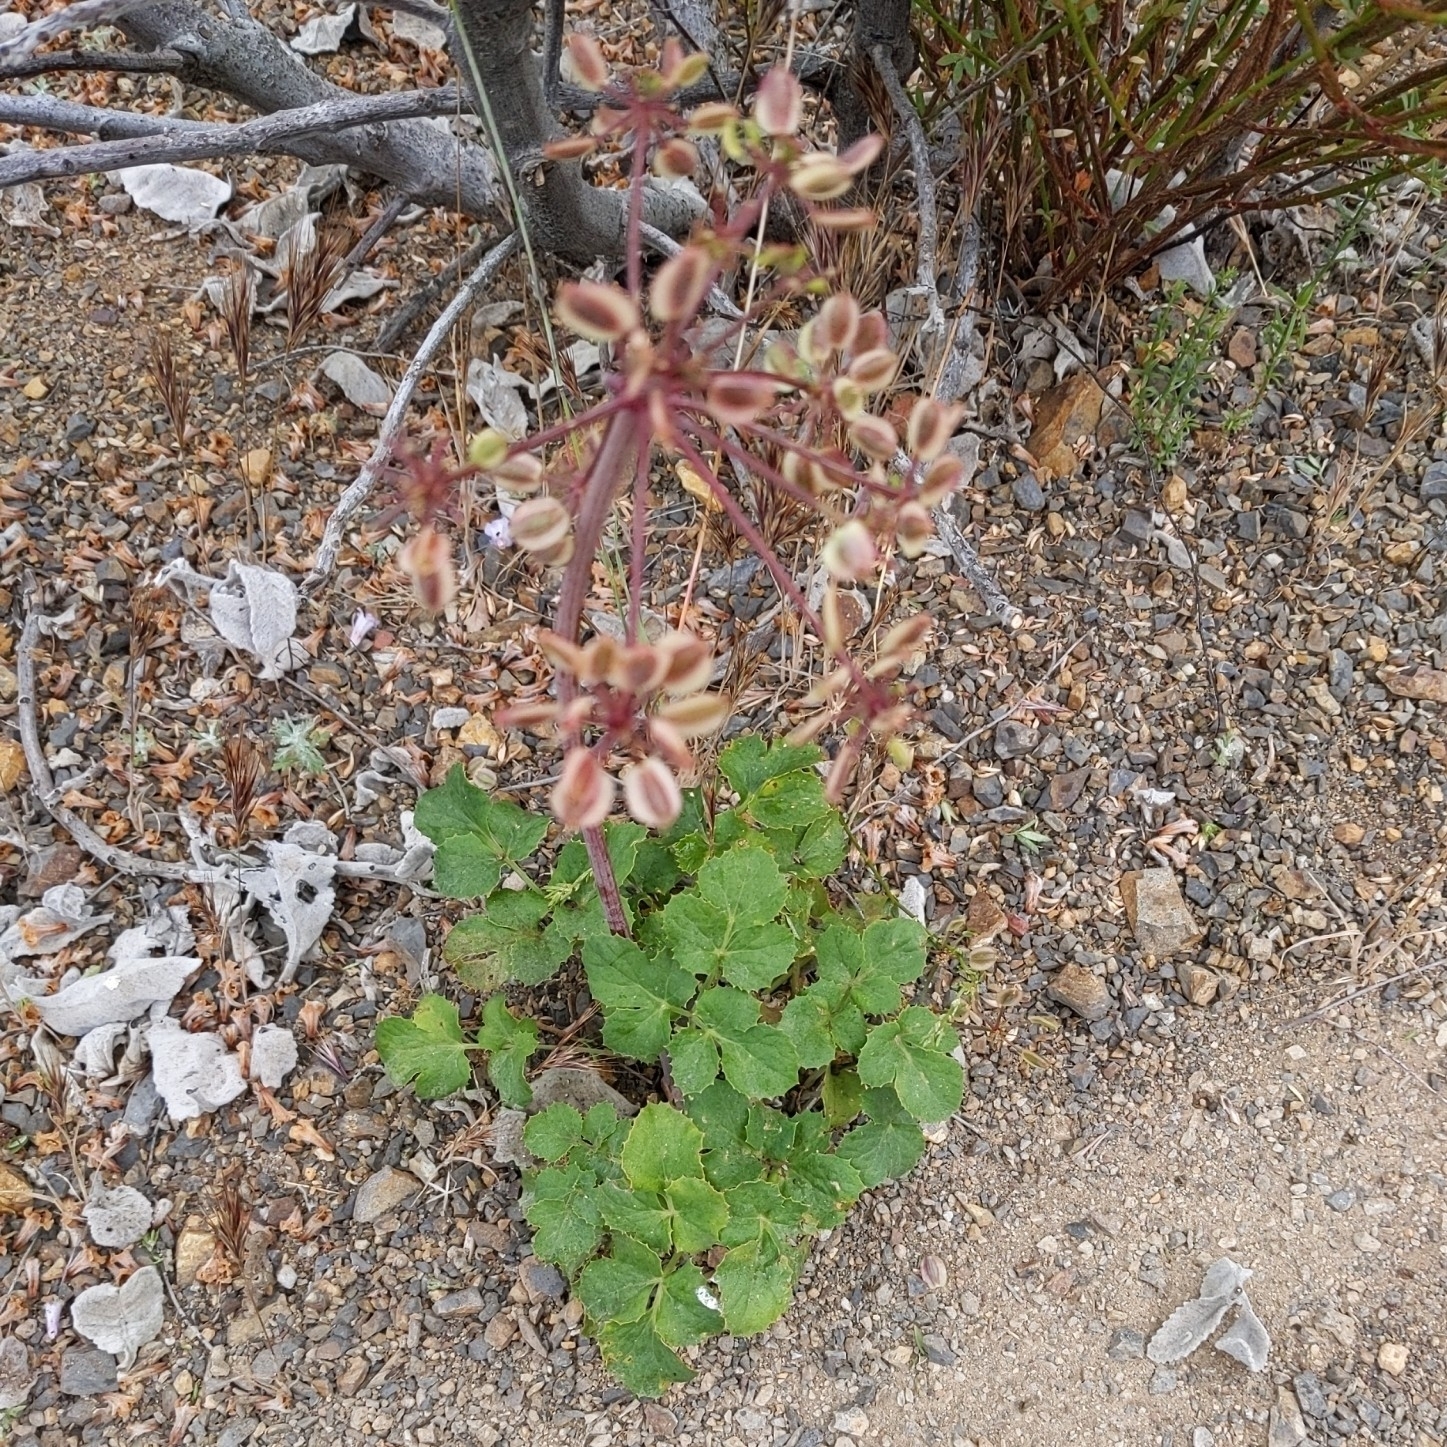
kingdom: Plantae
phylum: Tracheophyta
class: Magnoliopsida
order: Apiales
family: Apiaceae
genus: Lomatium
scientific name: Lomatium lucidum
